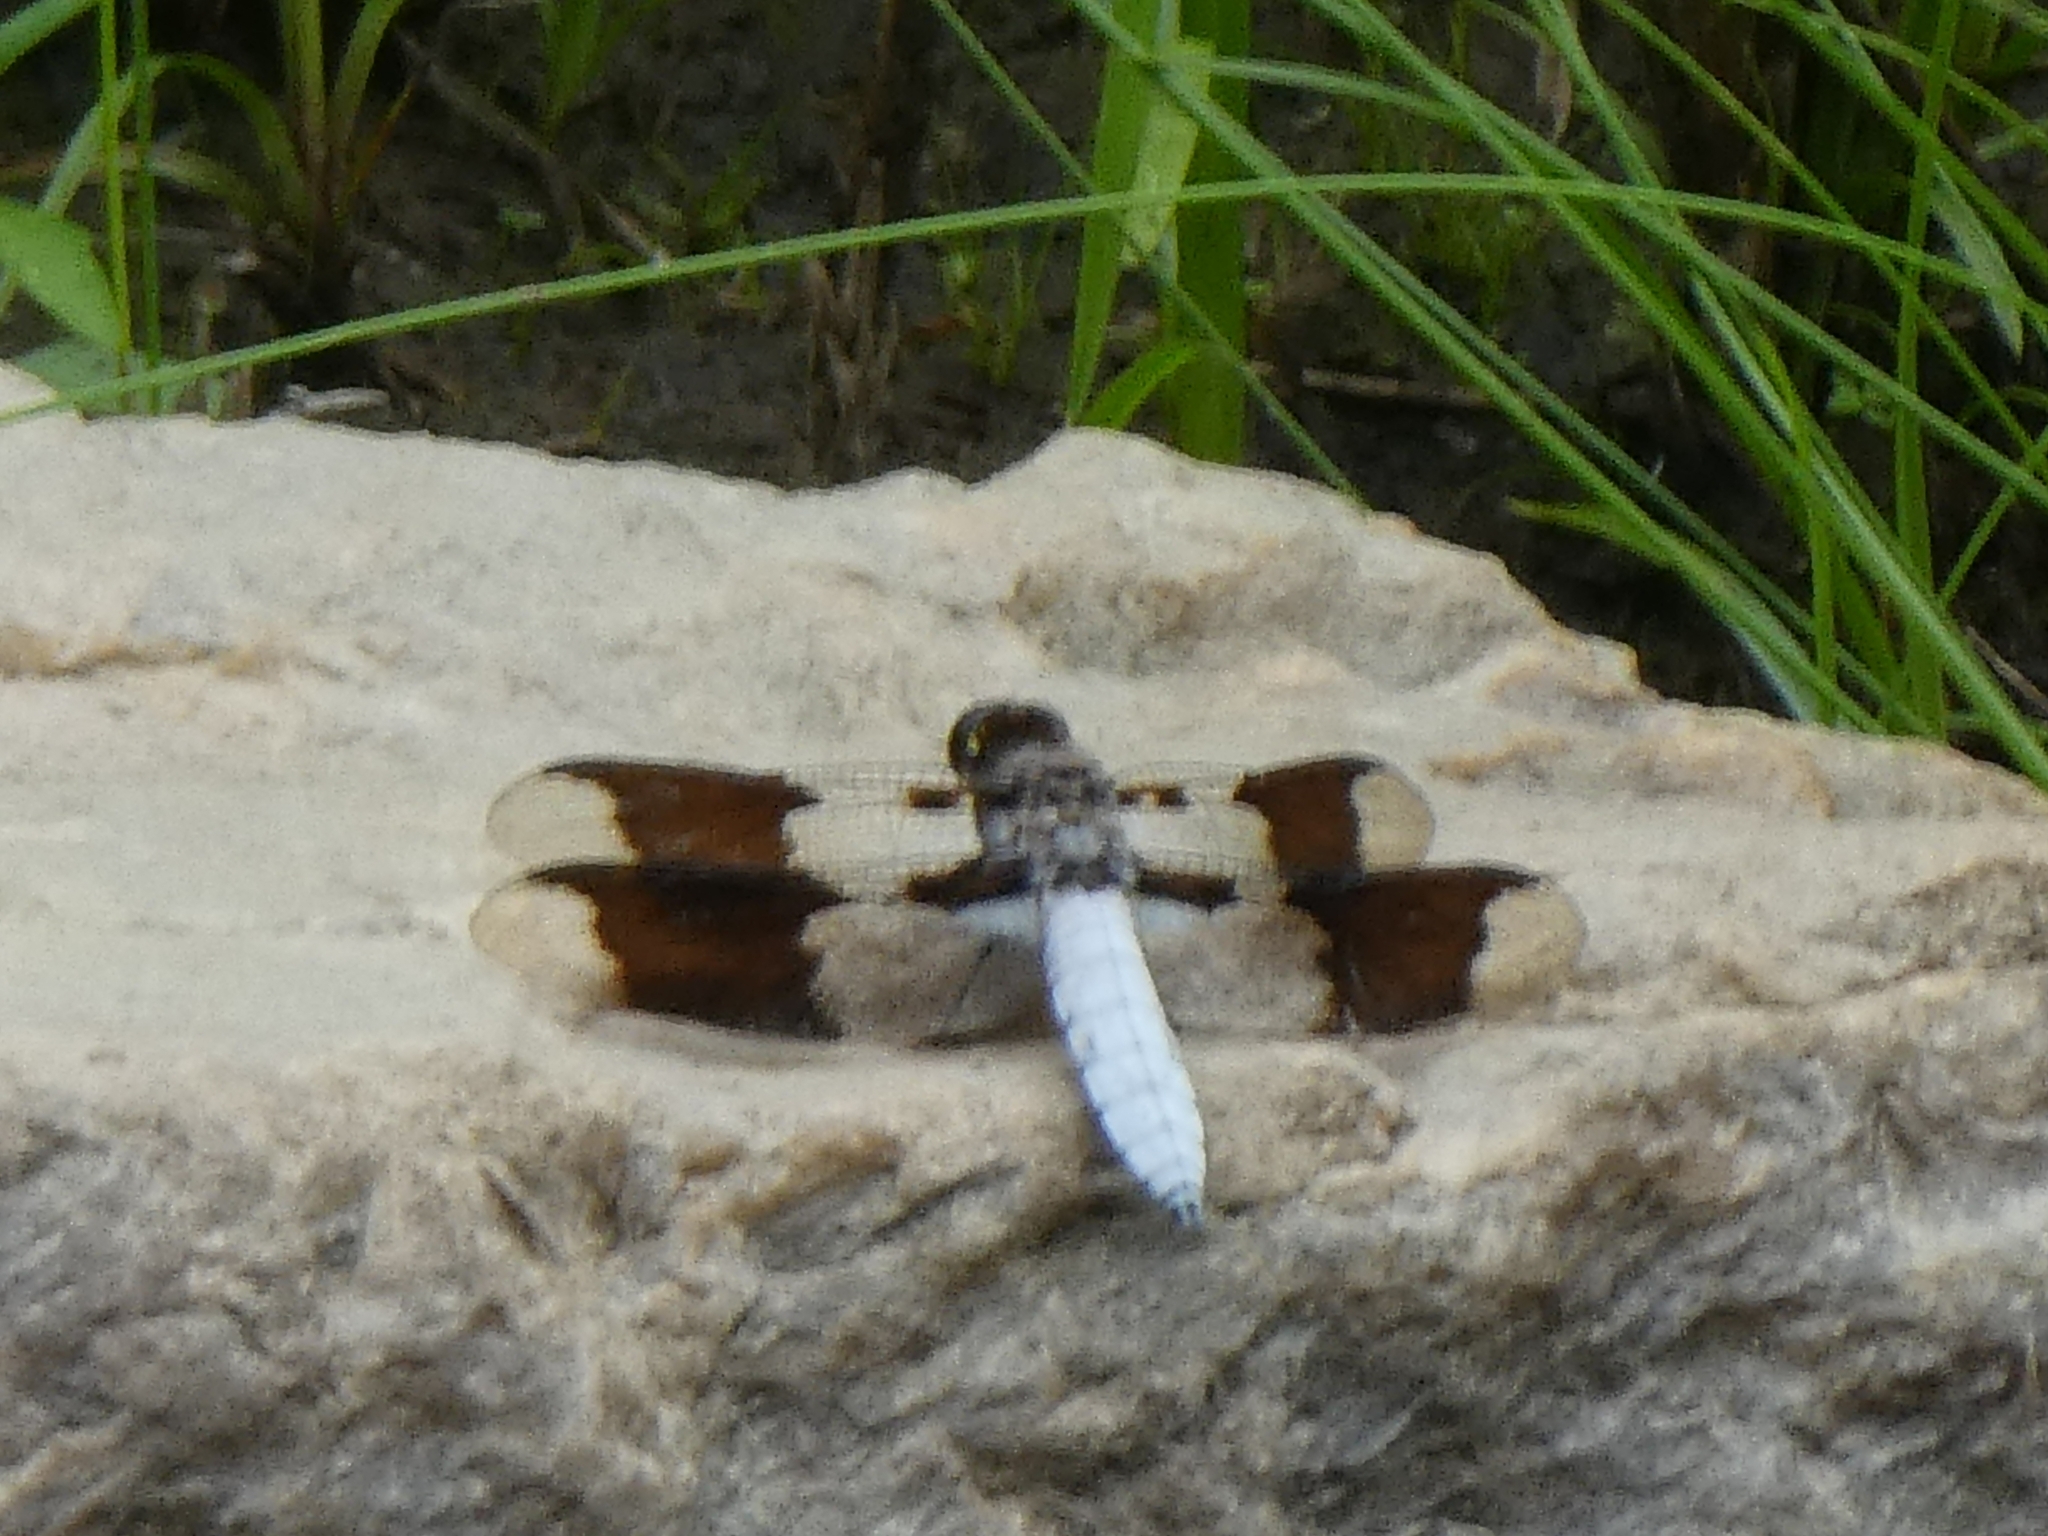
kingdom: Animalia
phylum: Arthropoda
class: Insecta
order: Odonata
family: Libellulidae
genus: Plathemis
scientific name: Plathemis lydia
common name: Common whitetail
